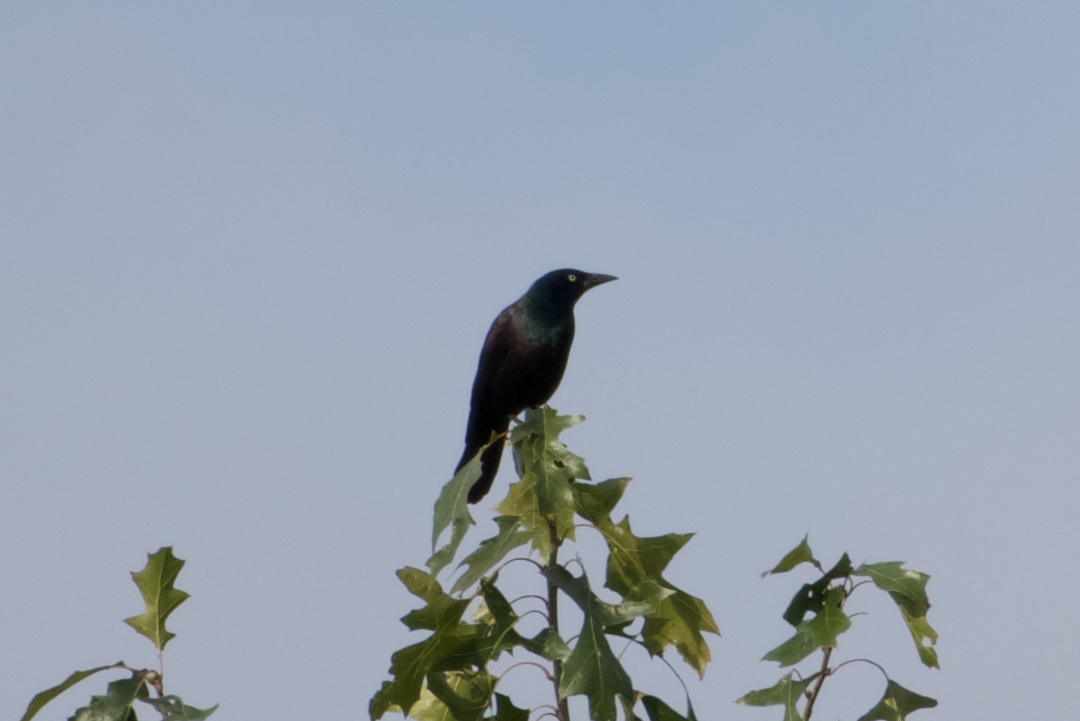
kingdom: Animalia
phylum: Chordata
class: Aves
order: Passeriformes
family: Icteridae
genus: Quiscalus
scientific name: Quiscalus quiscula
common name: Common grackle
